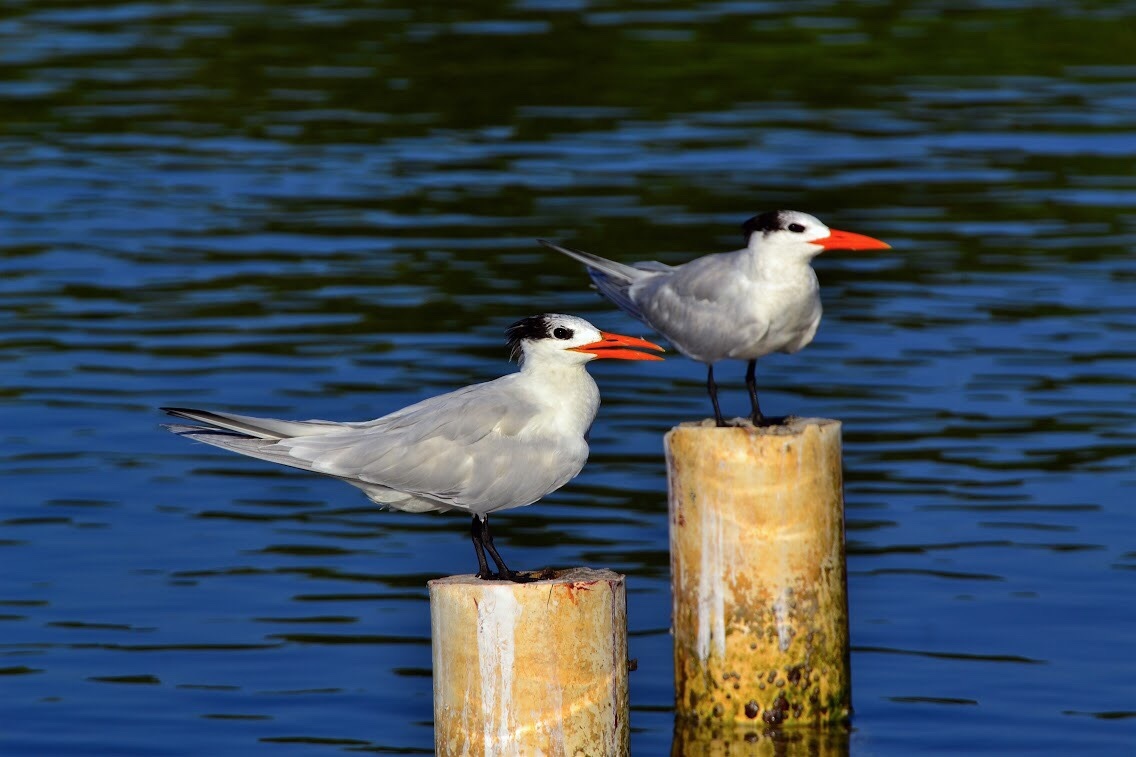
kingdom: Animalia
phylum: Chordata
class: Aves
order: Charadriiformes
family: Laridae
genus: Thalasseus
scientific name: Thalasseus maximus
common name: Royal tern
